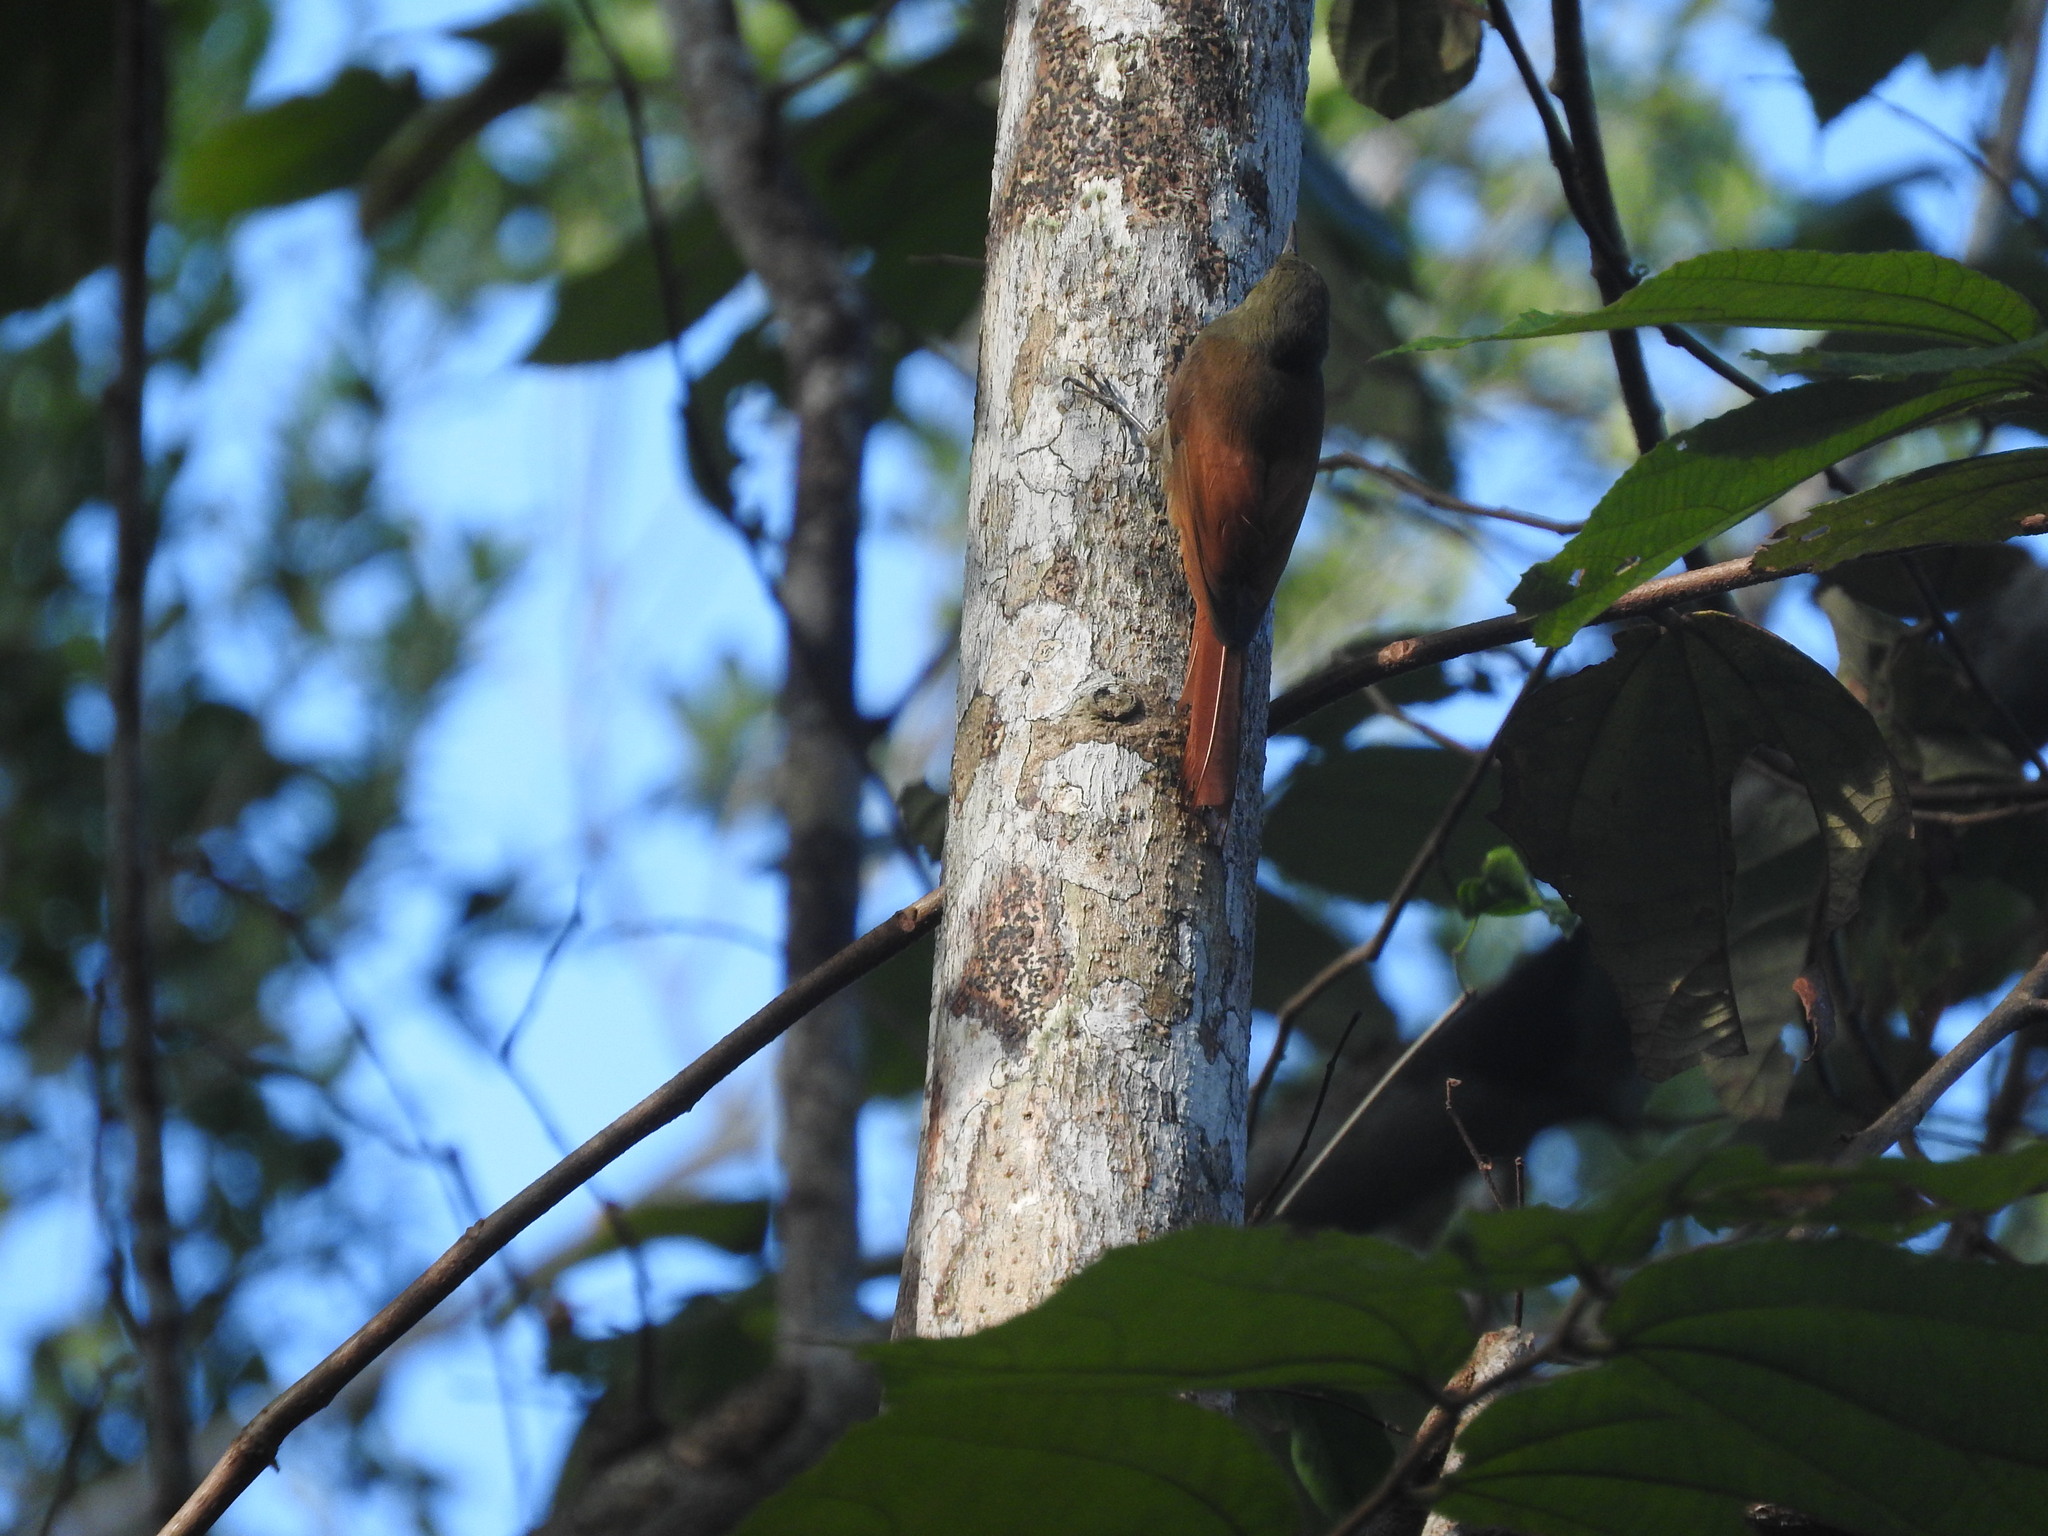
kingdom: Animalia
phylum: Chordata
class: Aves
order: Passeriformes
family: Furnariidae
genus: Sittasomus
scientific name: Sittasomus griseicapillus
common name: Olivaceous woodcreeper
